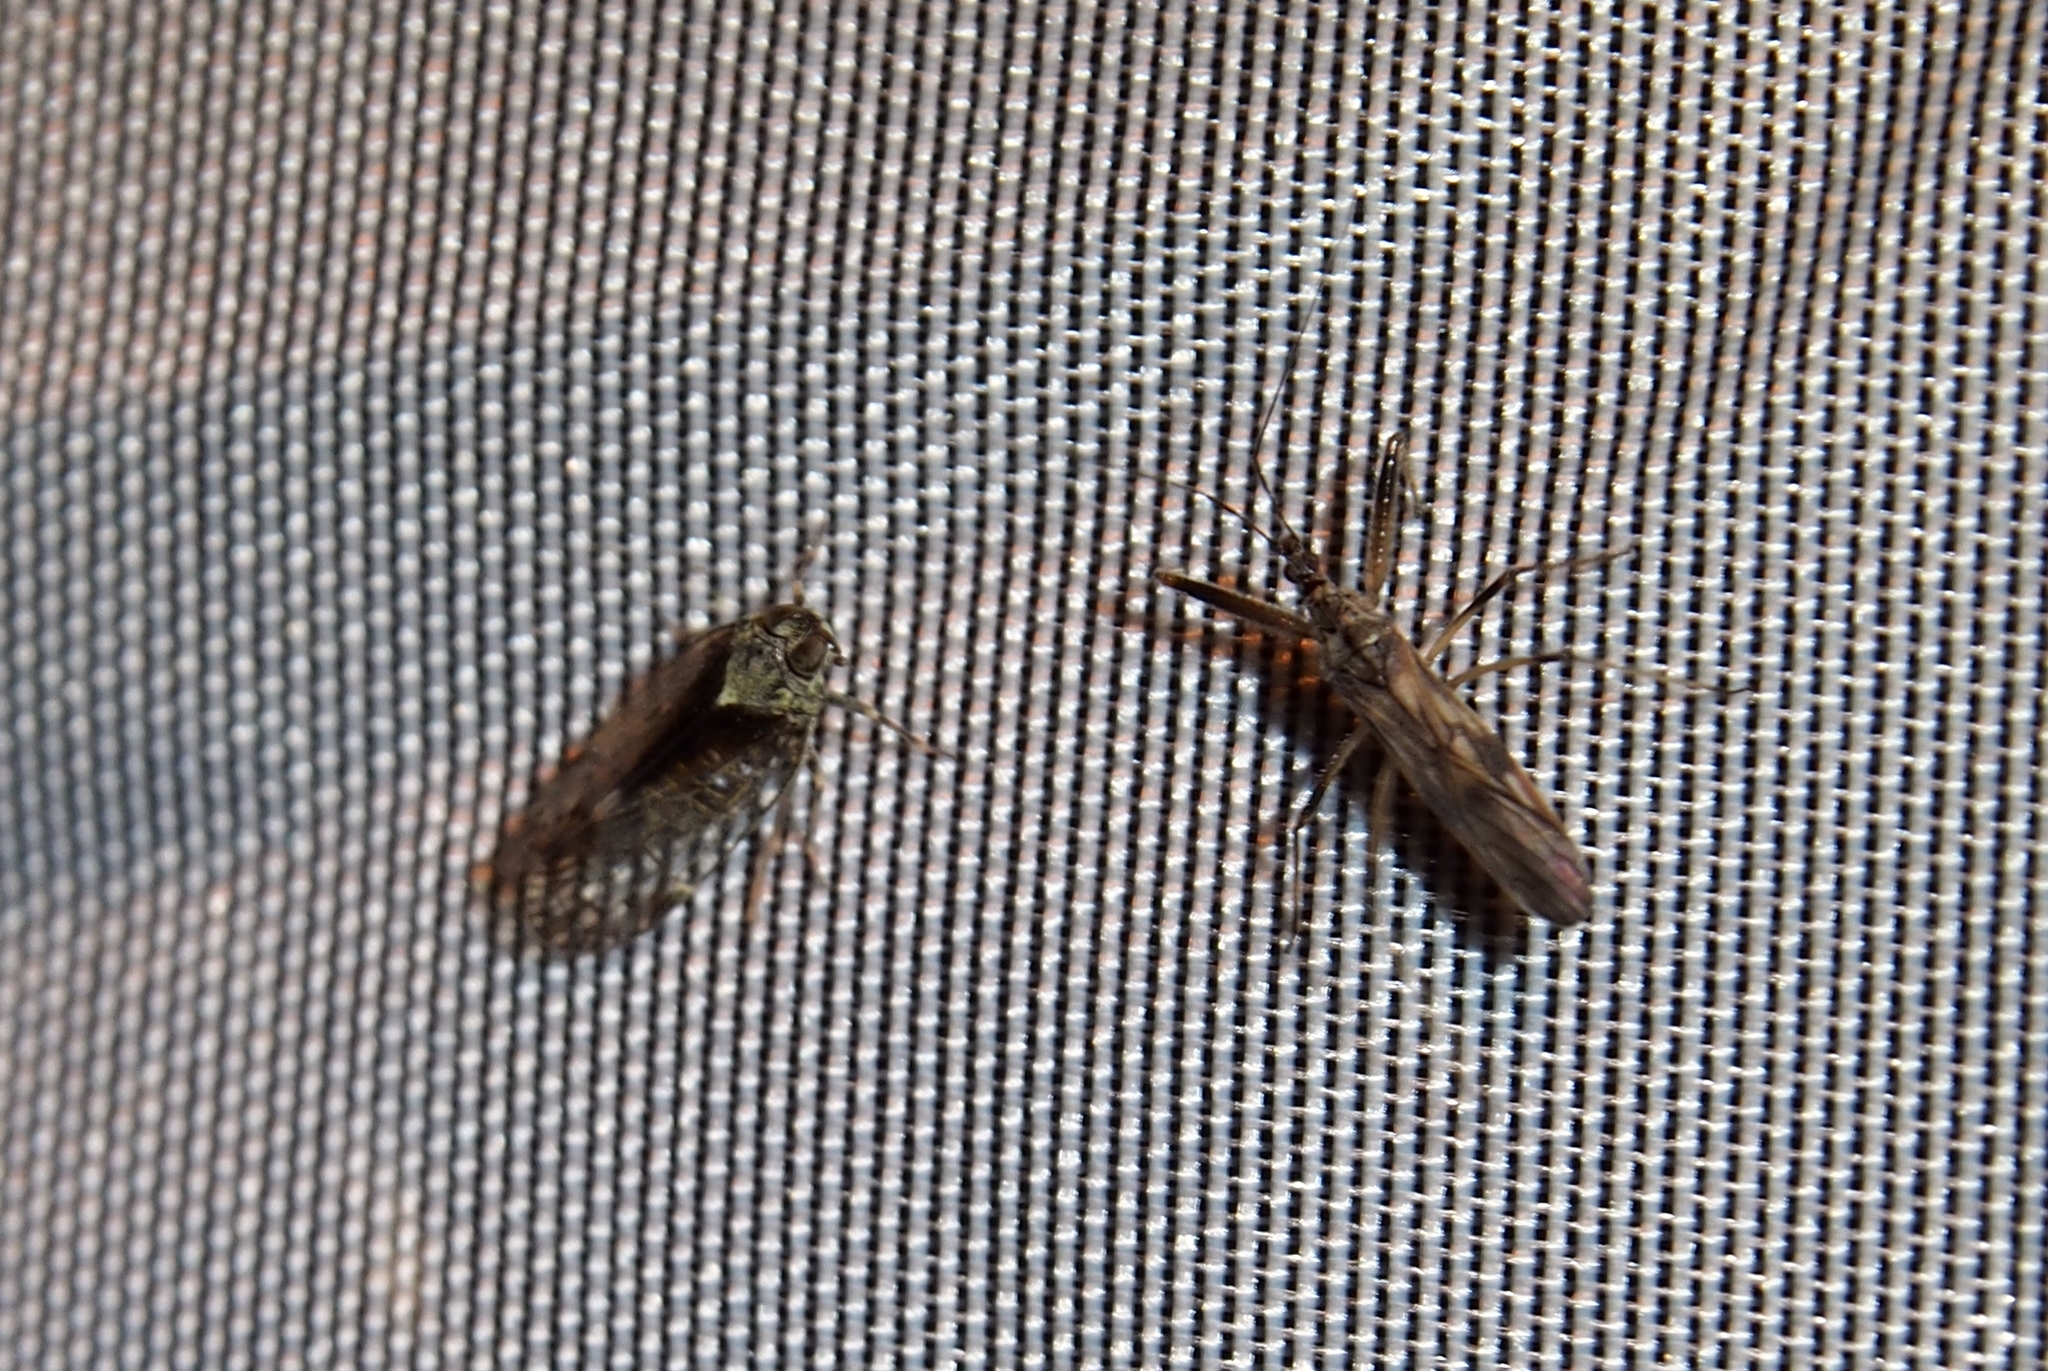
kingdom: Animalia
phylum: Arthropoda
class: Insecta
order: Hemiptera
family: Nabidae
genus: Metatropiphorus
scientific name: Metatropiphorus belfragii
